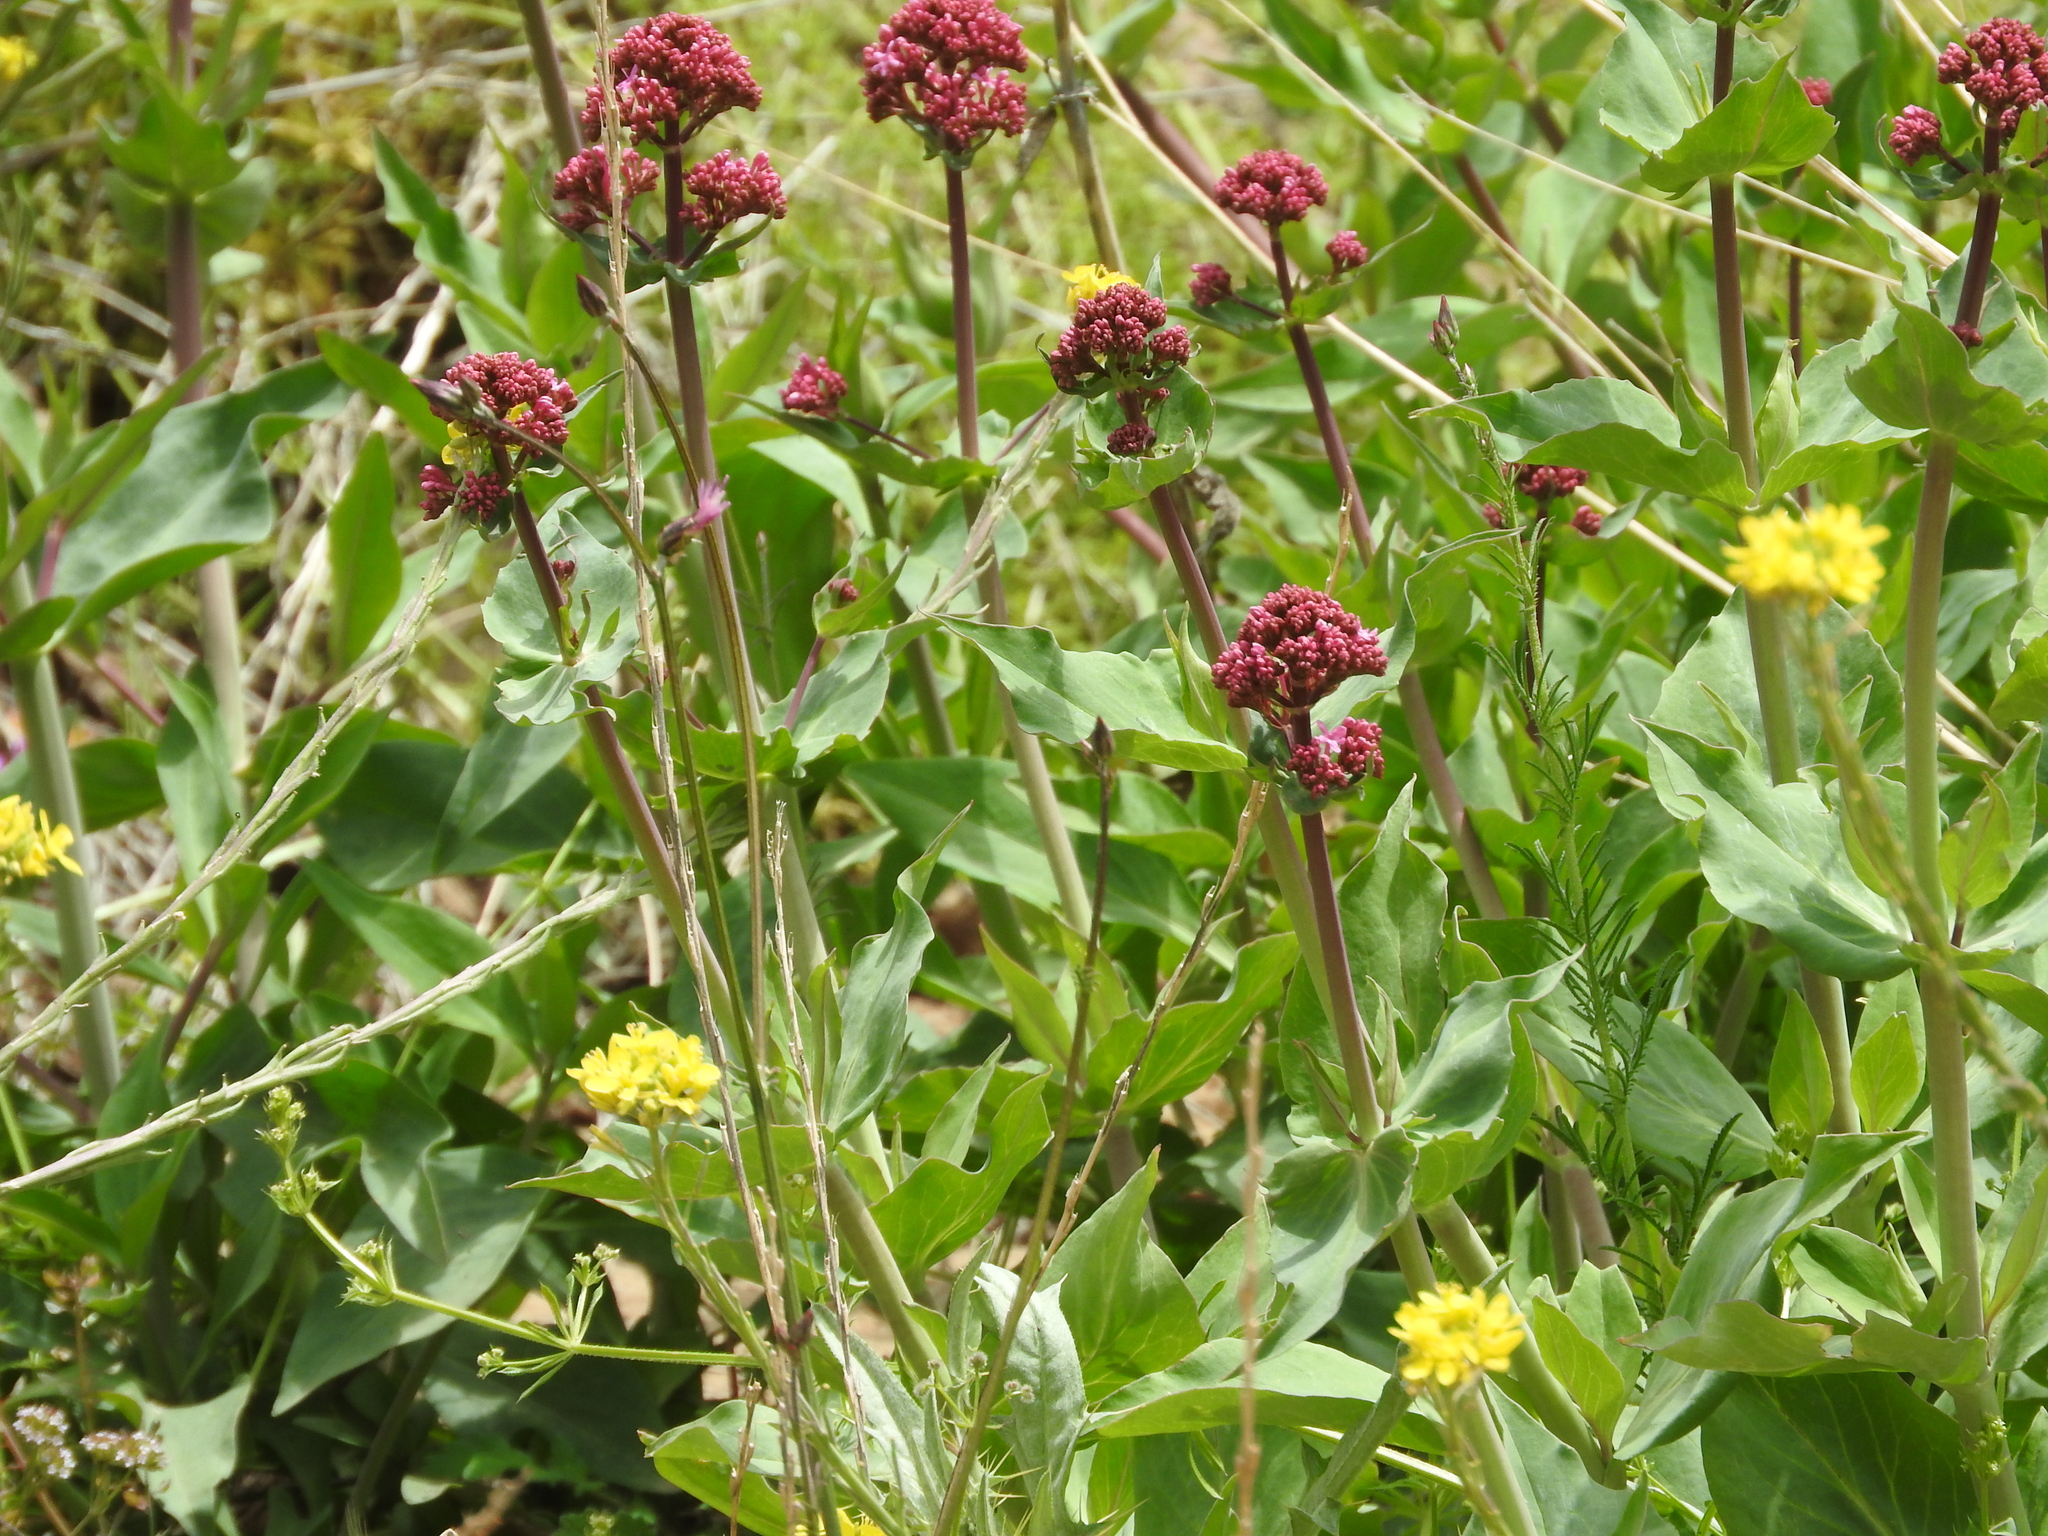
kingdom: Plantae
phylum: Tracheophyta
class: Magnoliopsida
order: Dipsacales
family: Caprifoliaceae
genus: Centranthus
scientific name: Centranthus ruber
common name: Red valerian
